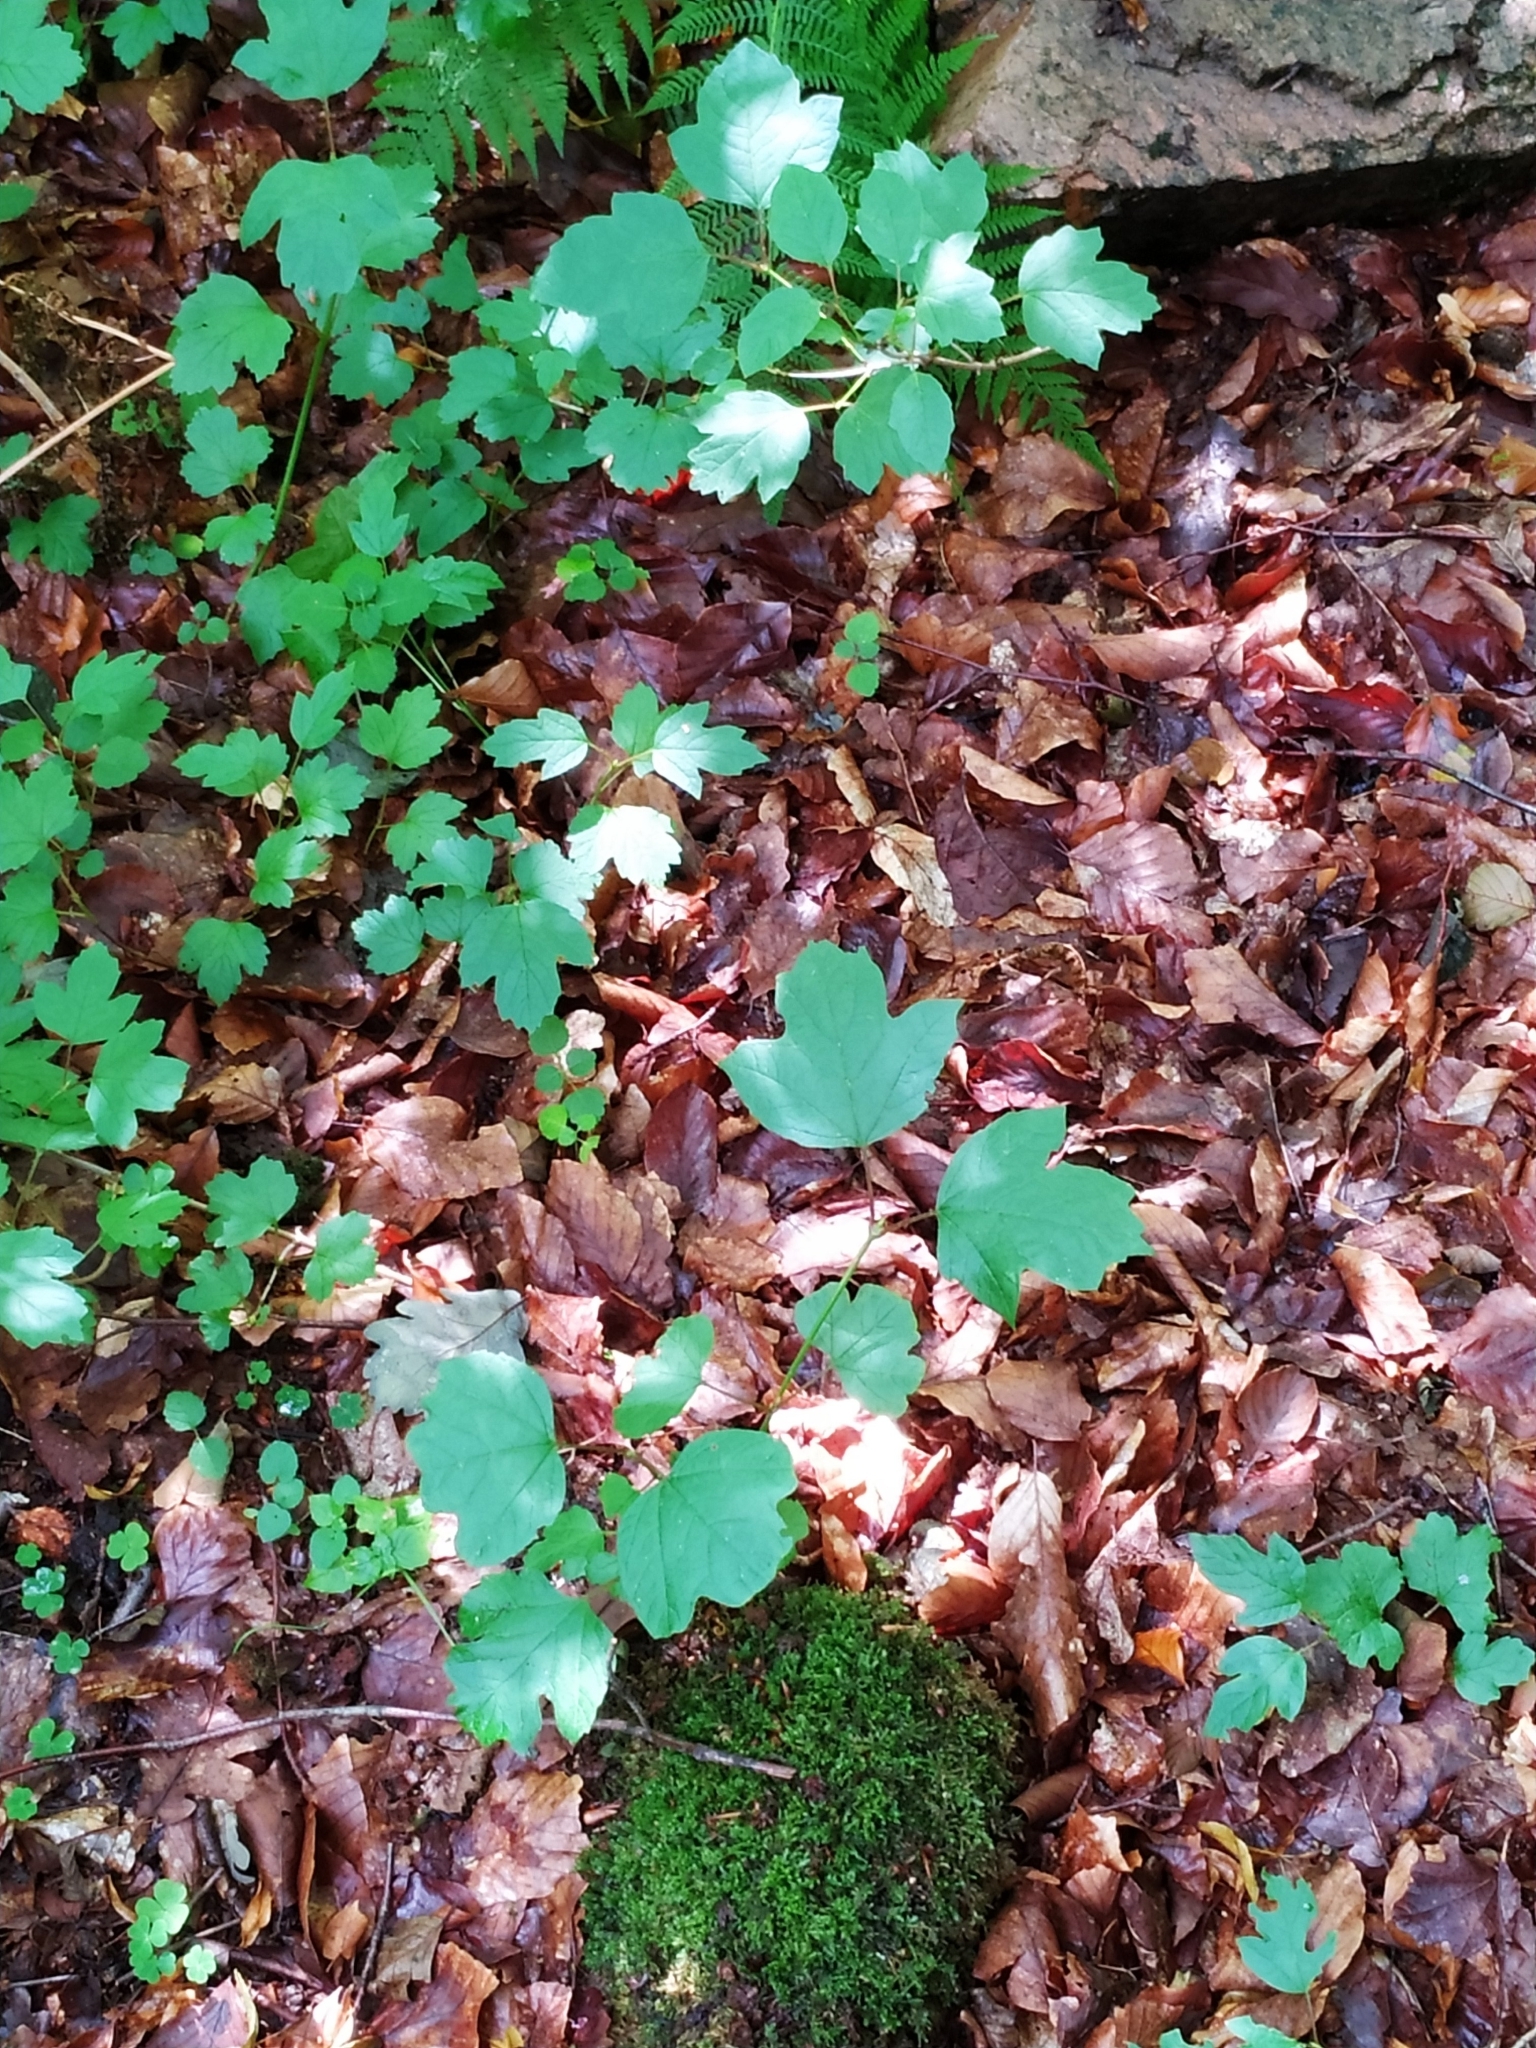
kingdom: Plantae
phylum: Tracheophyta
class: Magnoliopsida
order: Dipsacales
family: Viburnaceae
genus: Viburnum
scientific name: Viburnum opulus
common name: Guelder-rose
